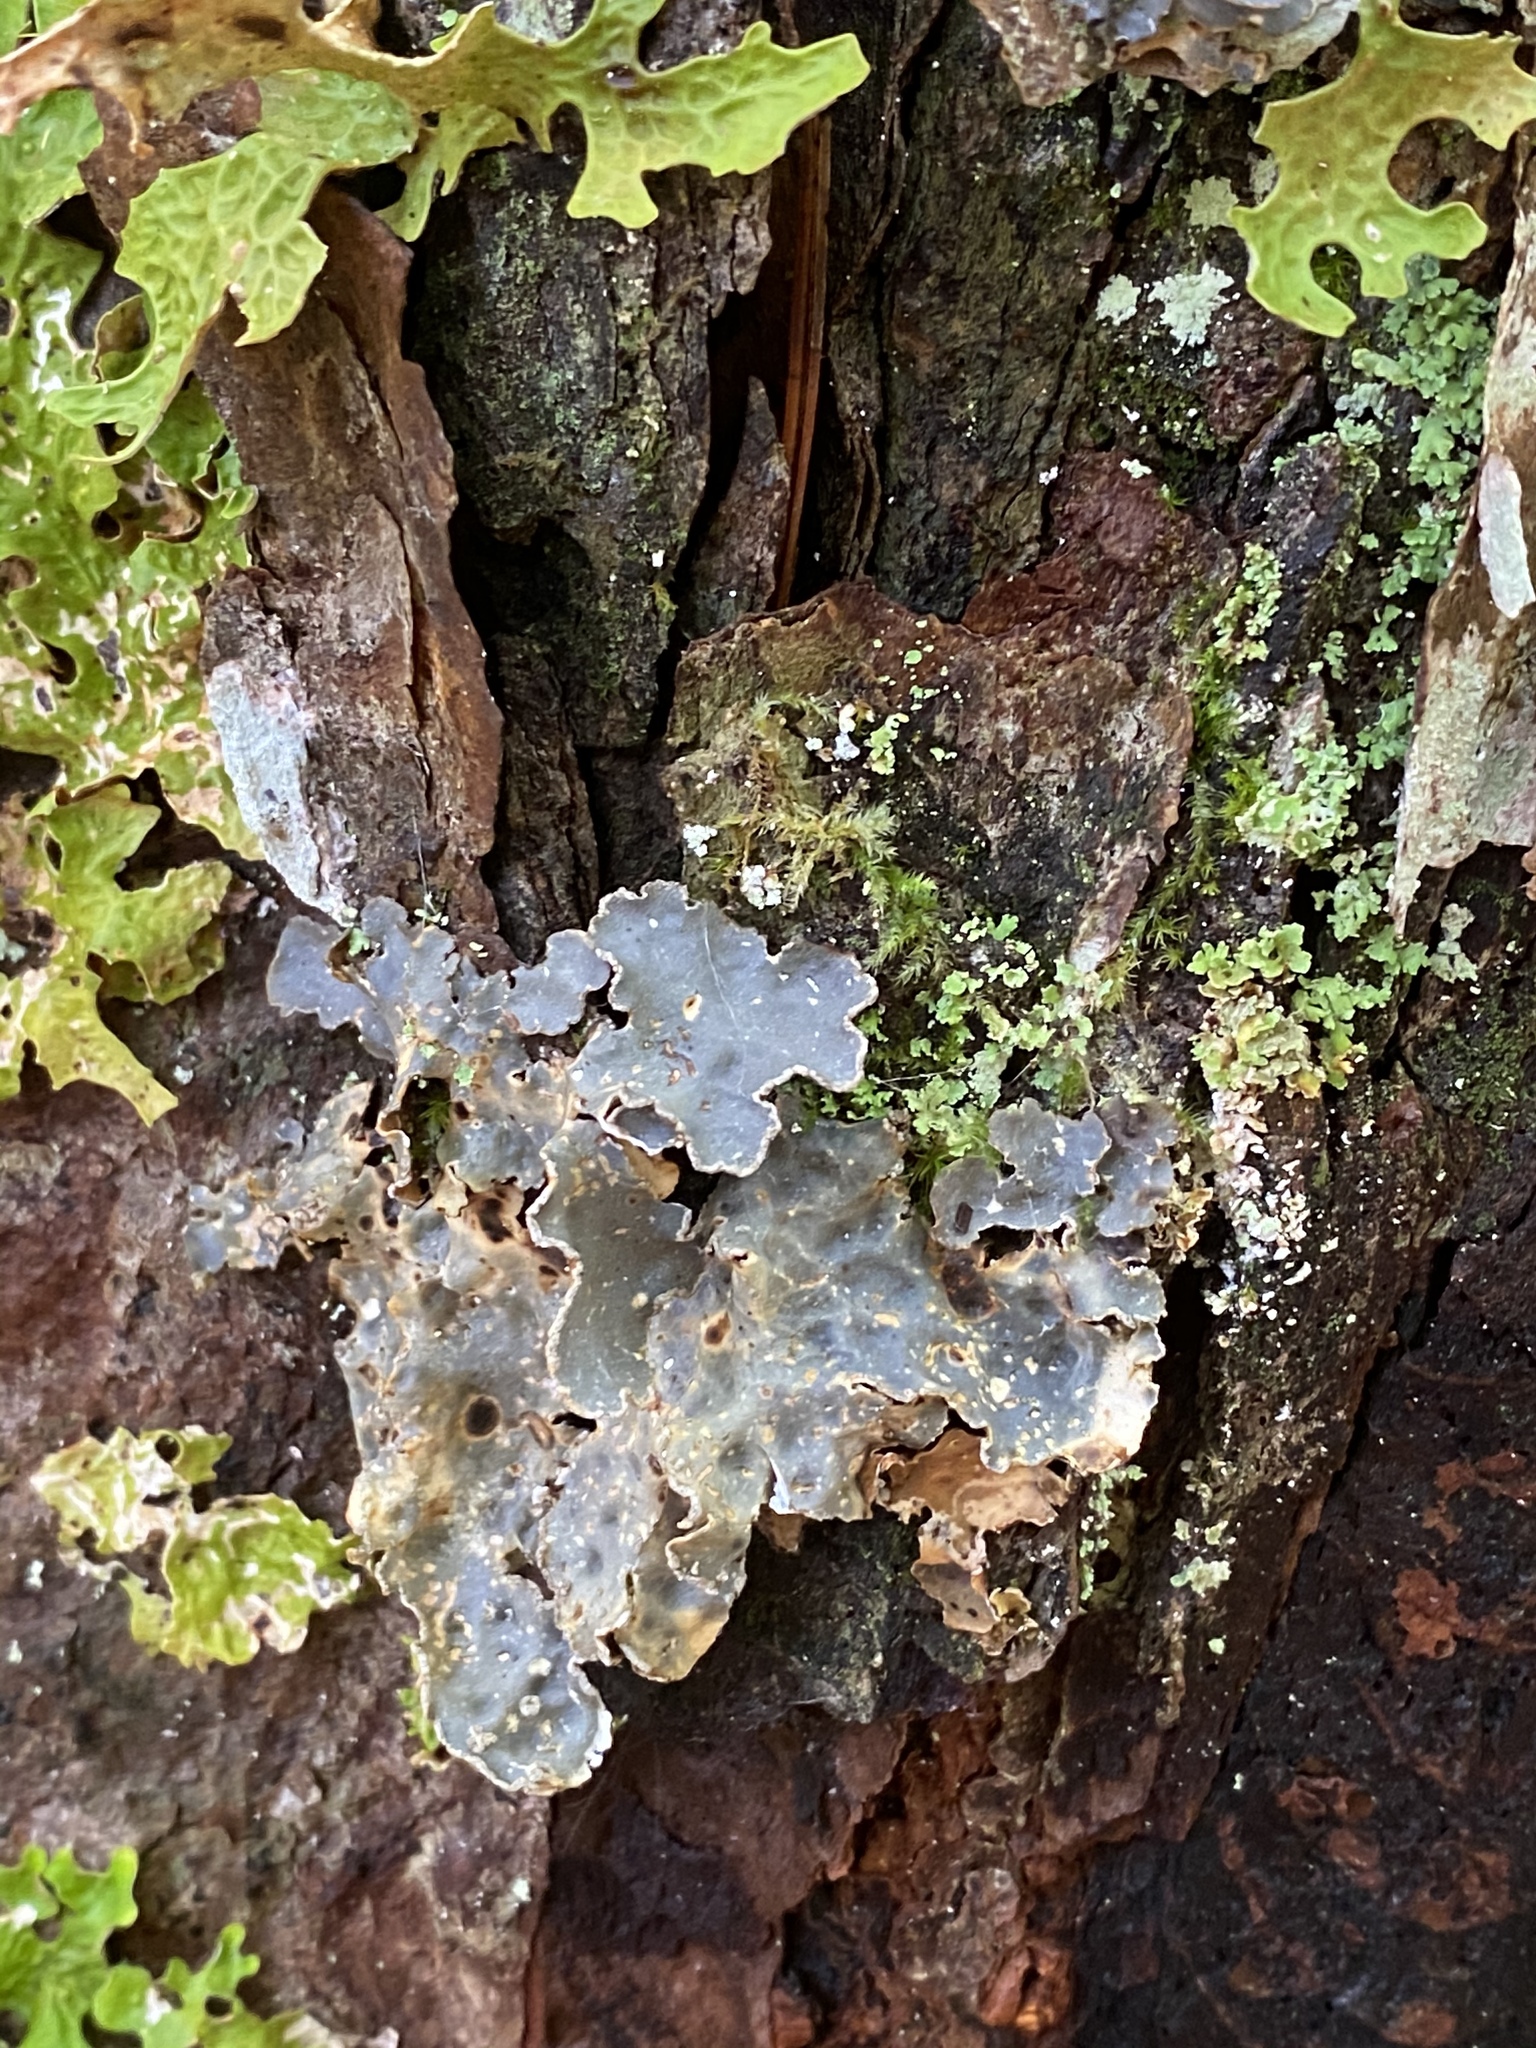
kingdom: Fungi
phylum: Ascomycota
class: Lecanoromycetes
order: Peltigerales
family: Lobariaceae
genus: Lobarina
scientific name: Lobarina scrobiculata
